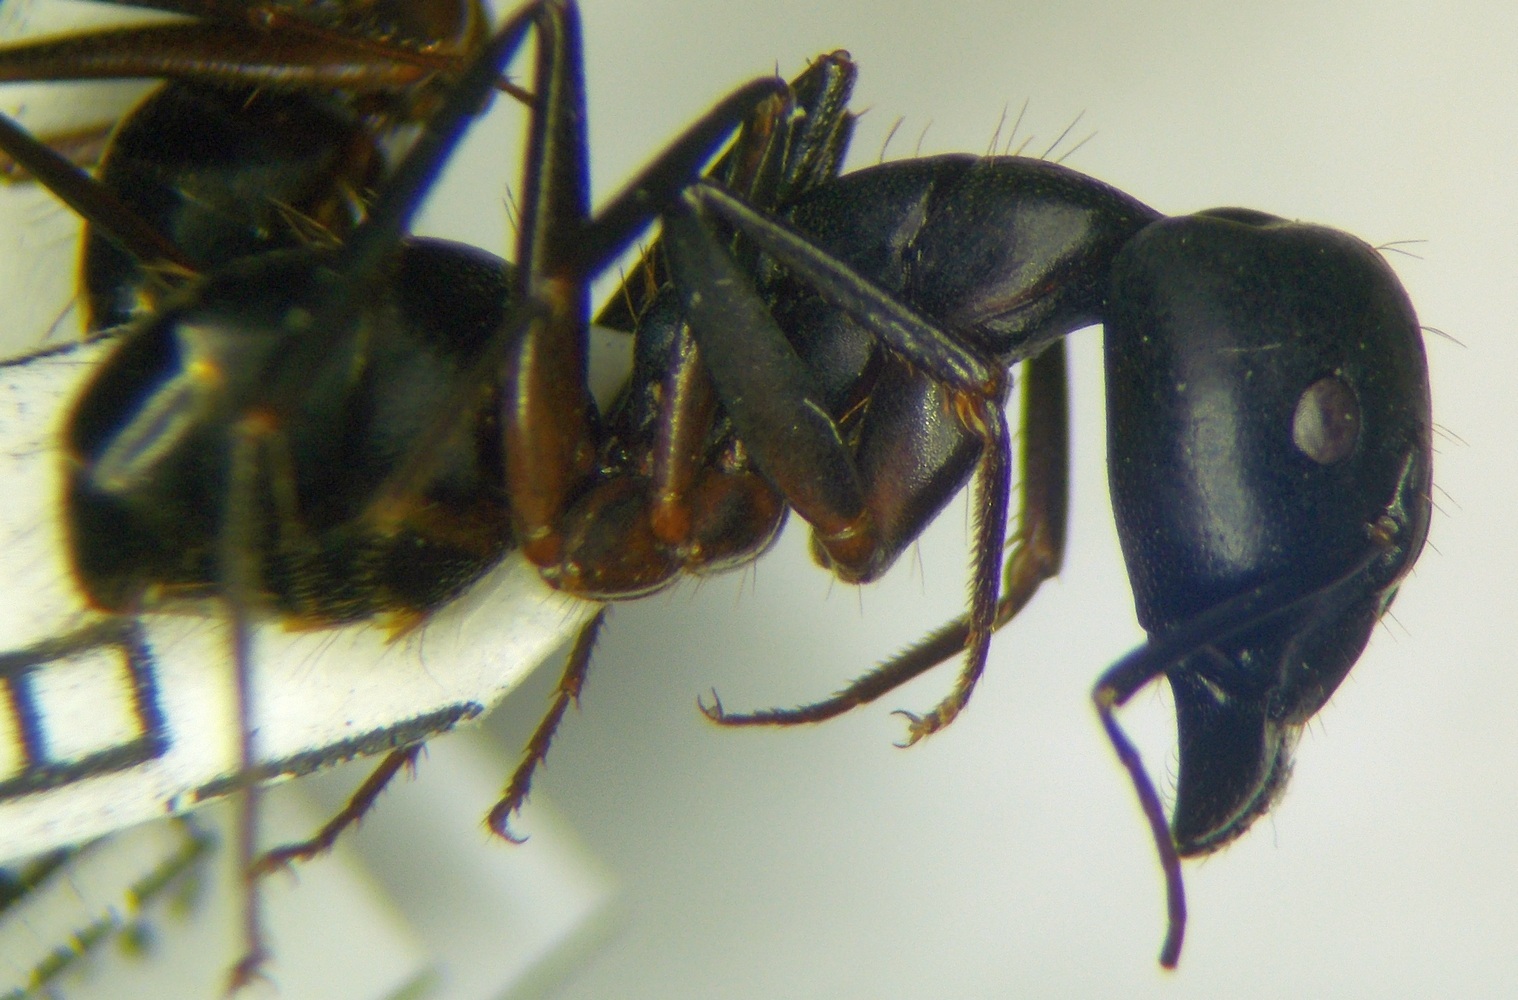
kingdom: Animalia
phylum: Arthropoda
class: Insecta
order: Hymenoptera
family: Formicidae
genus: Camponotus
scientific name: Camponotus sanctus
